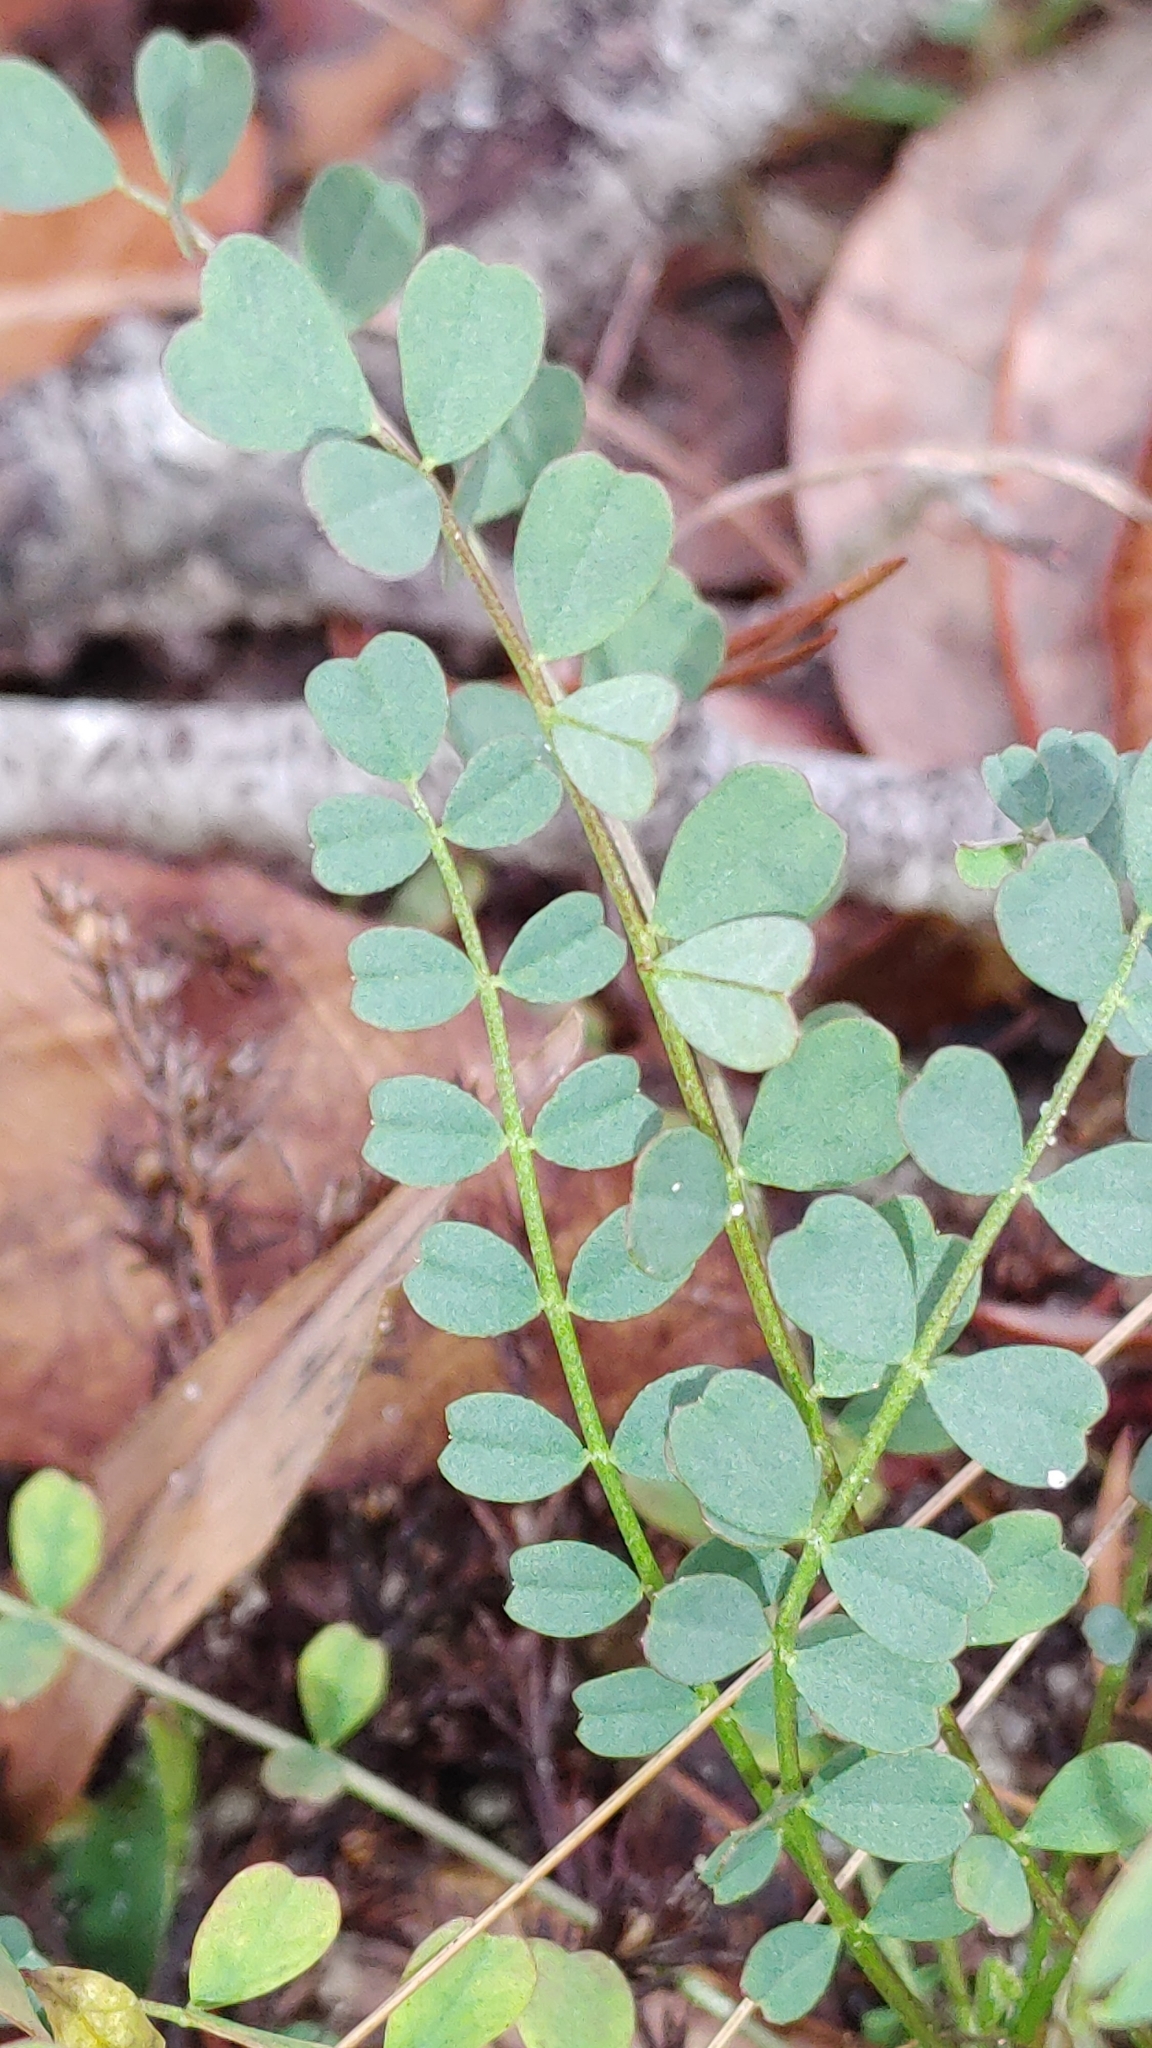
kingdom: Plantae
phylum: Tracheophyta
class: Magnoliopsida
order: Fabales
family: Fabaceae
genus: Astragalus
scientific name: Astragalus obcordatus
